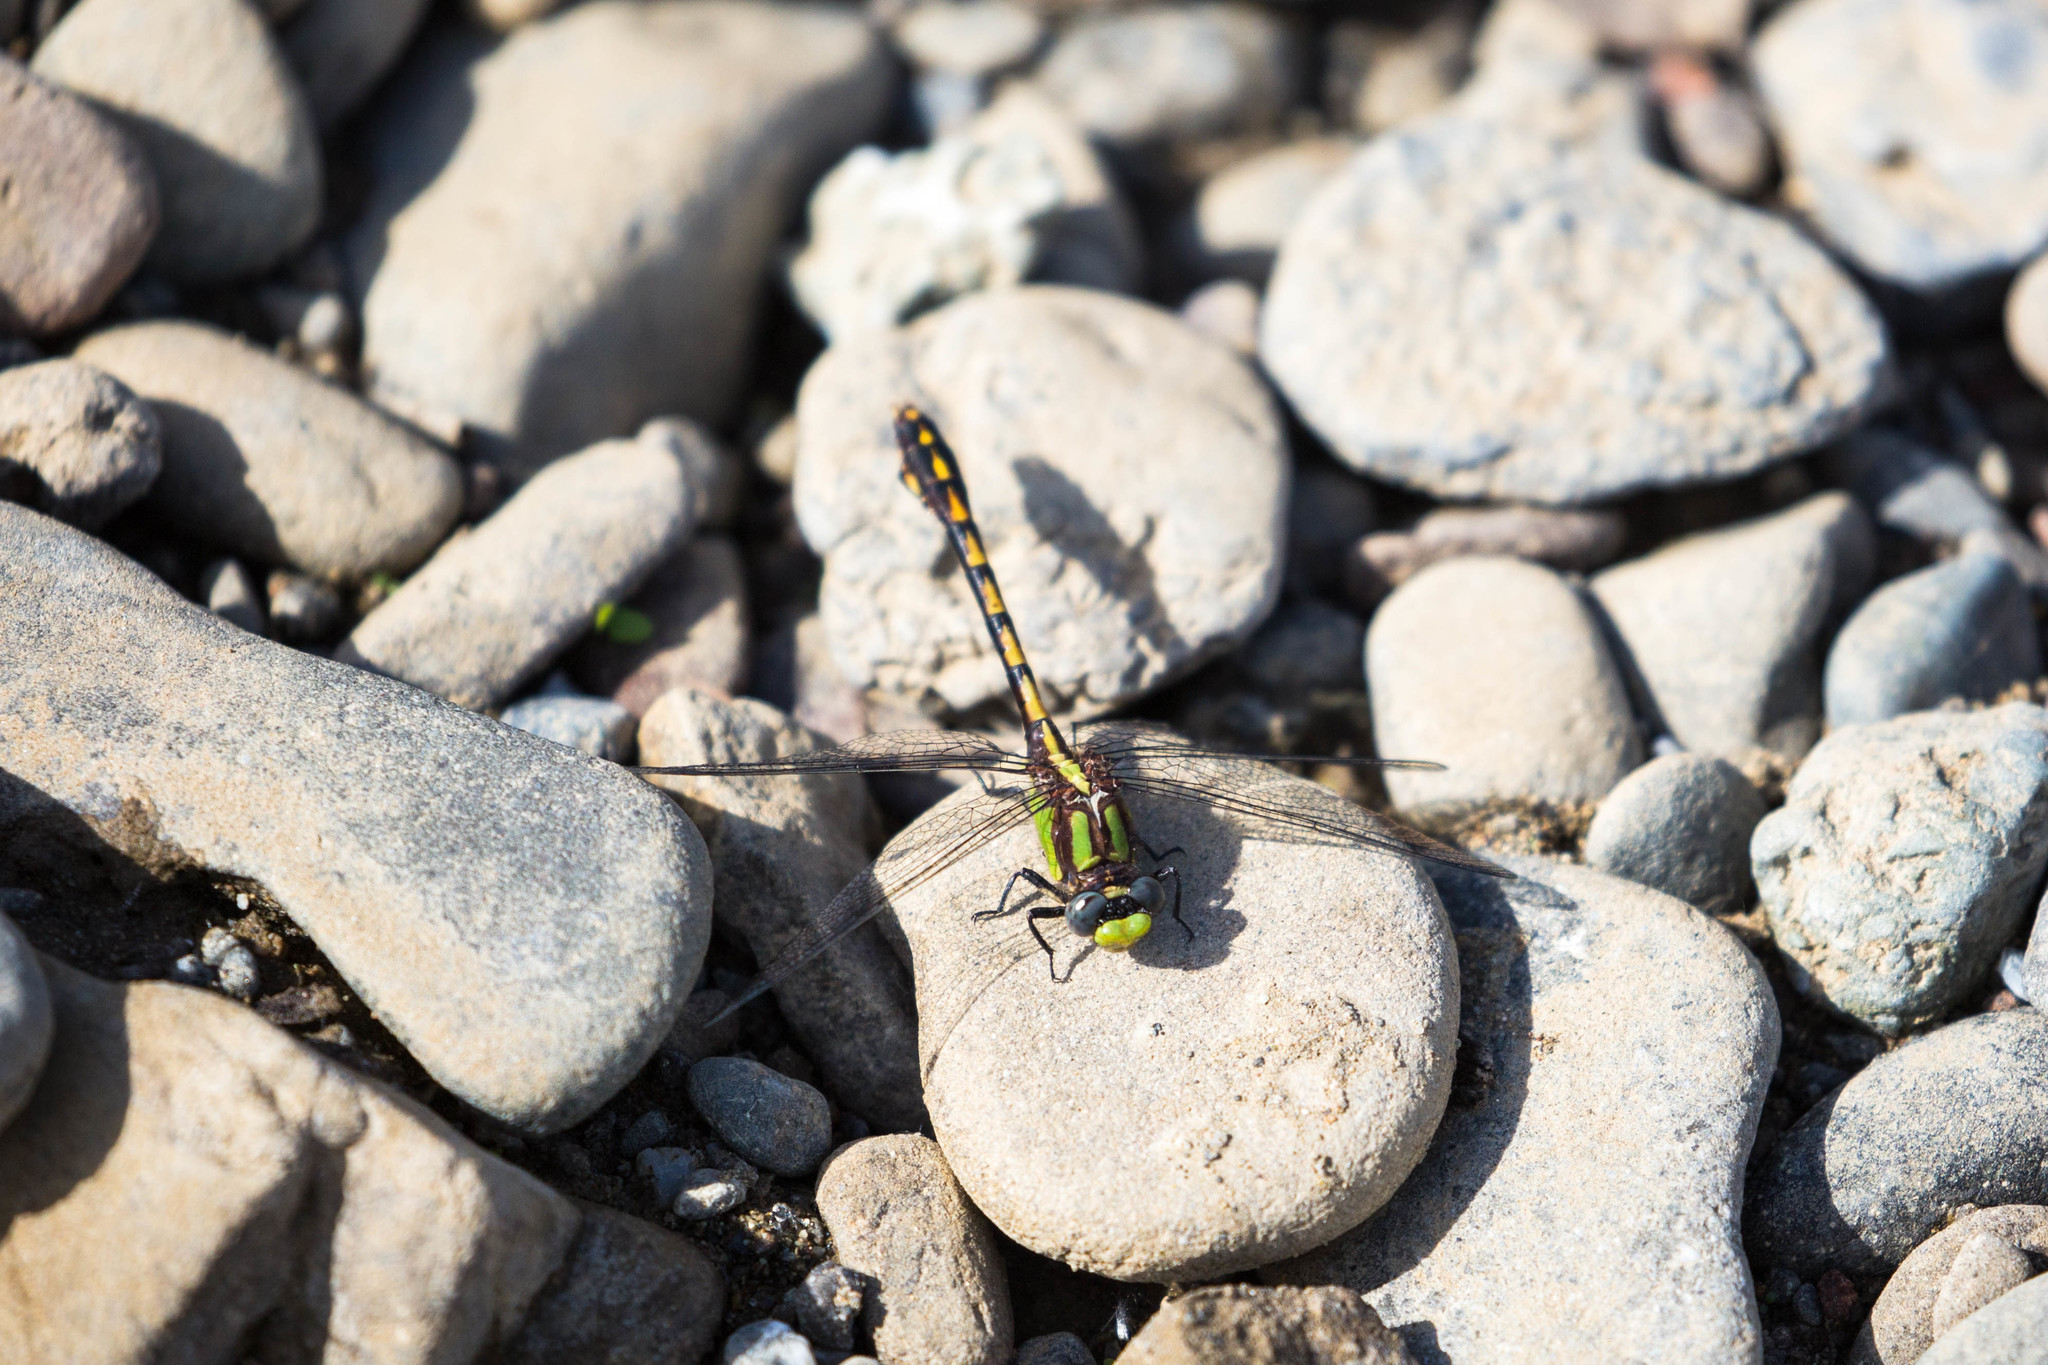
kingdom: Animalia
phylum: Arthropoda
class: Insecta
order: Odonata
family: Gomphidae
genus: Ophiogomphus
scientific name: Ophiogomphus bison
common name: Bison snaketail
